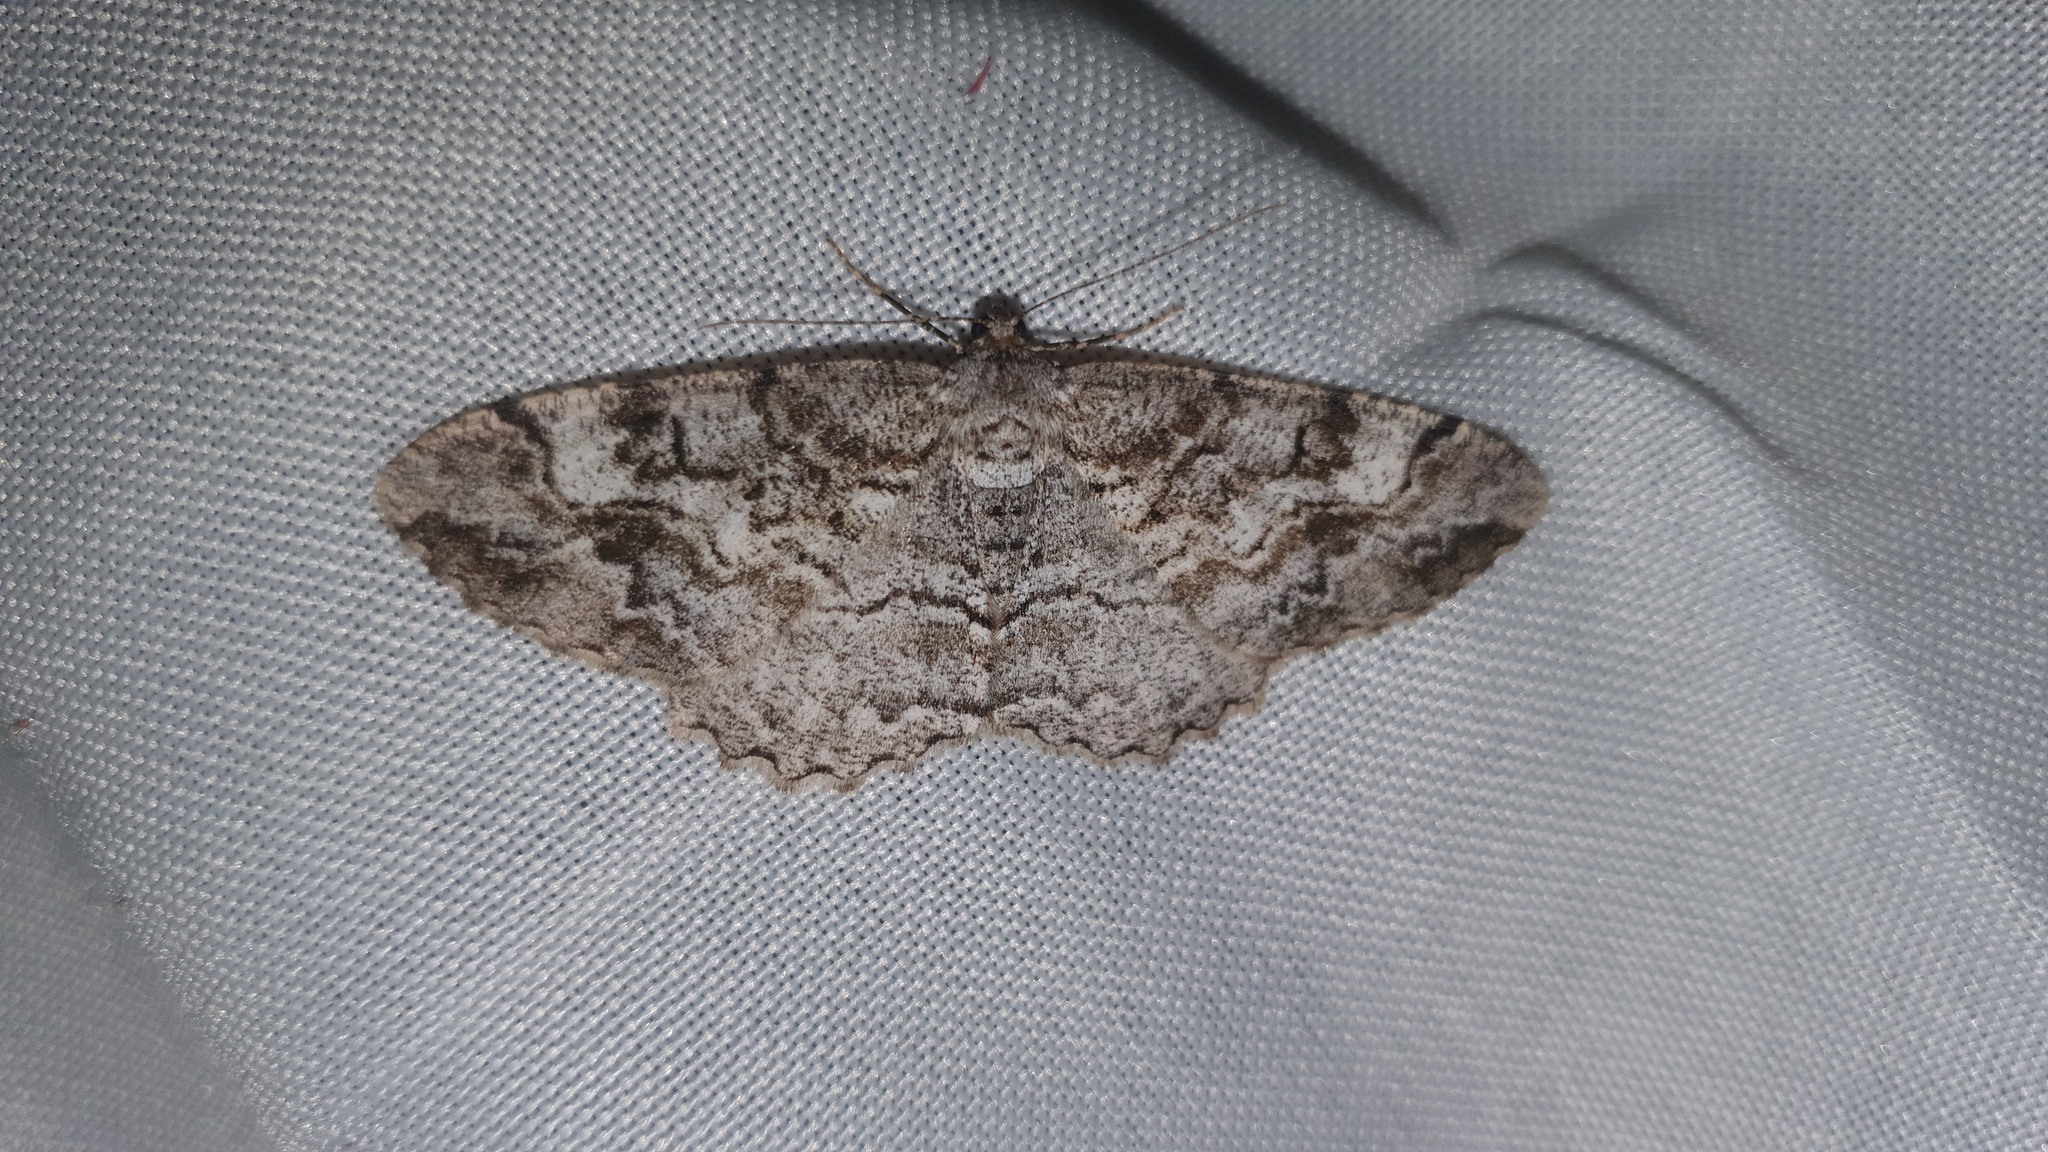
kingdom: Animalia
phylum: Arthropoda
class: Insecta
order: Lepidoptera
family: Geometridae
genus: Alcis
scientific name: Alcis repandata
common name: Mottled beauty
